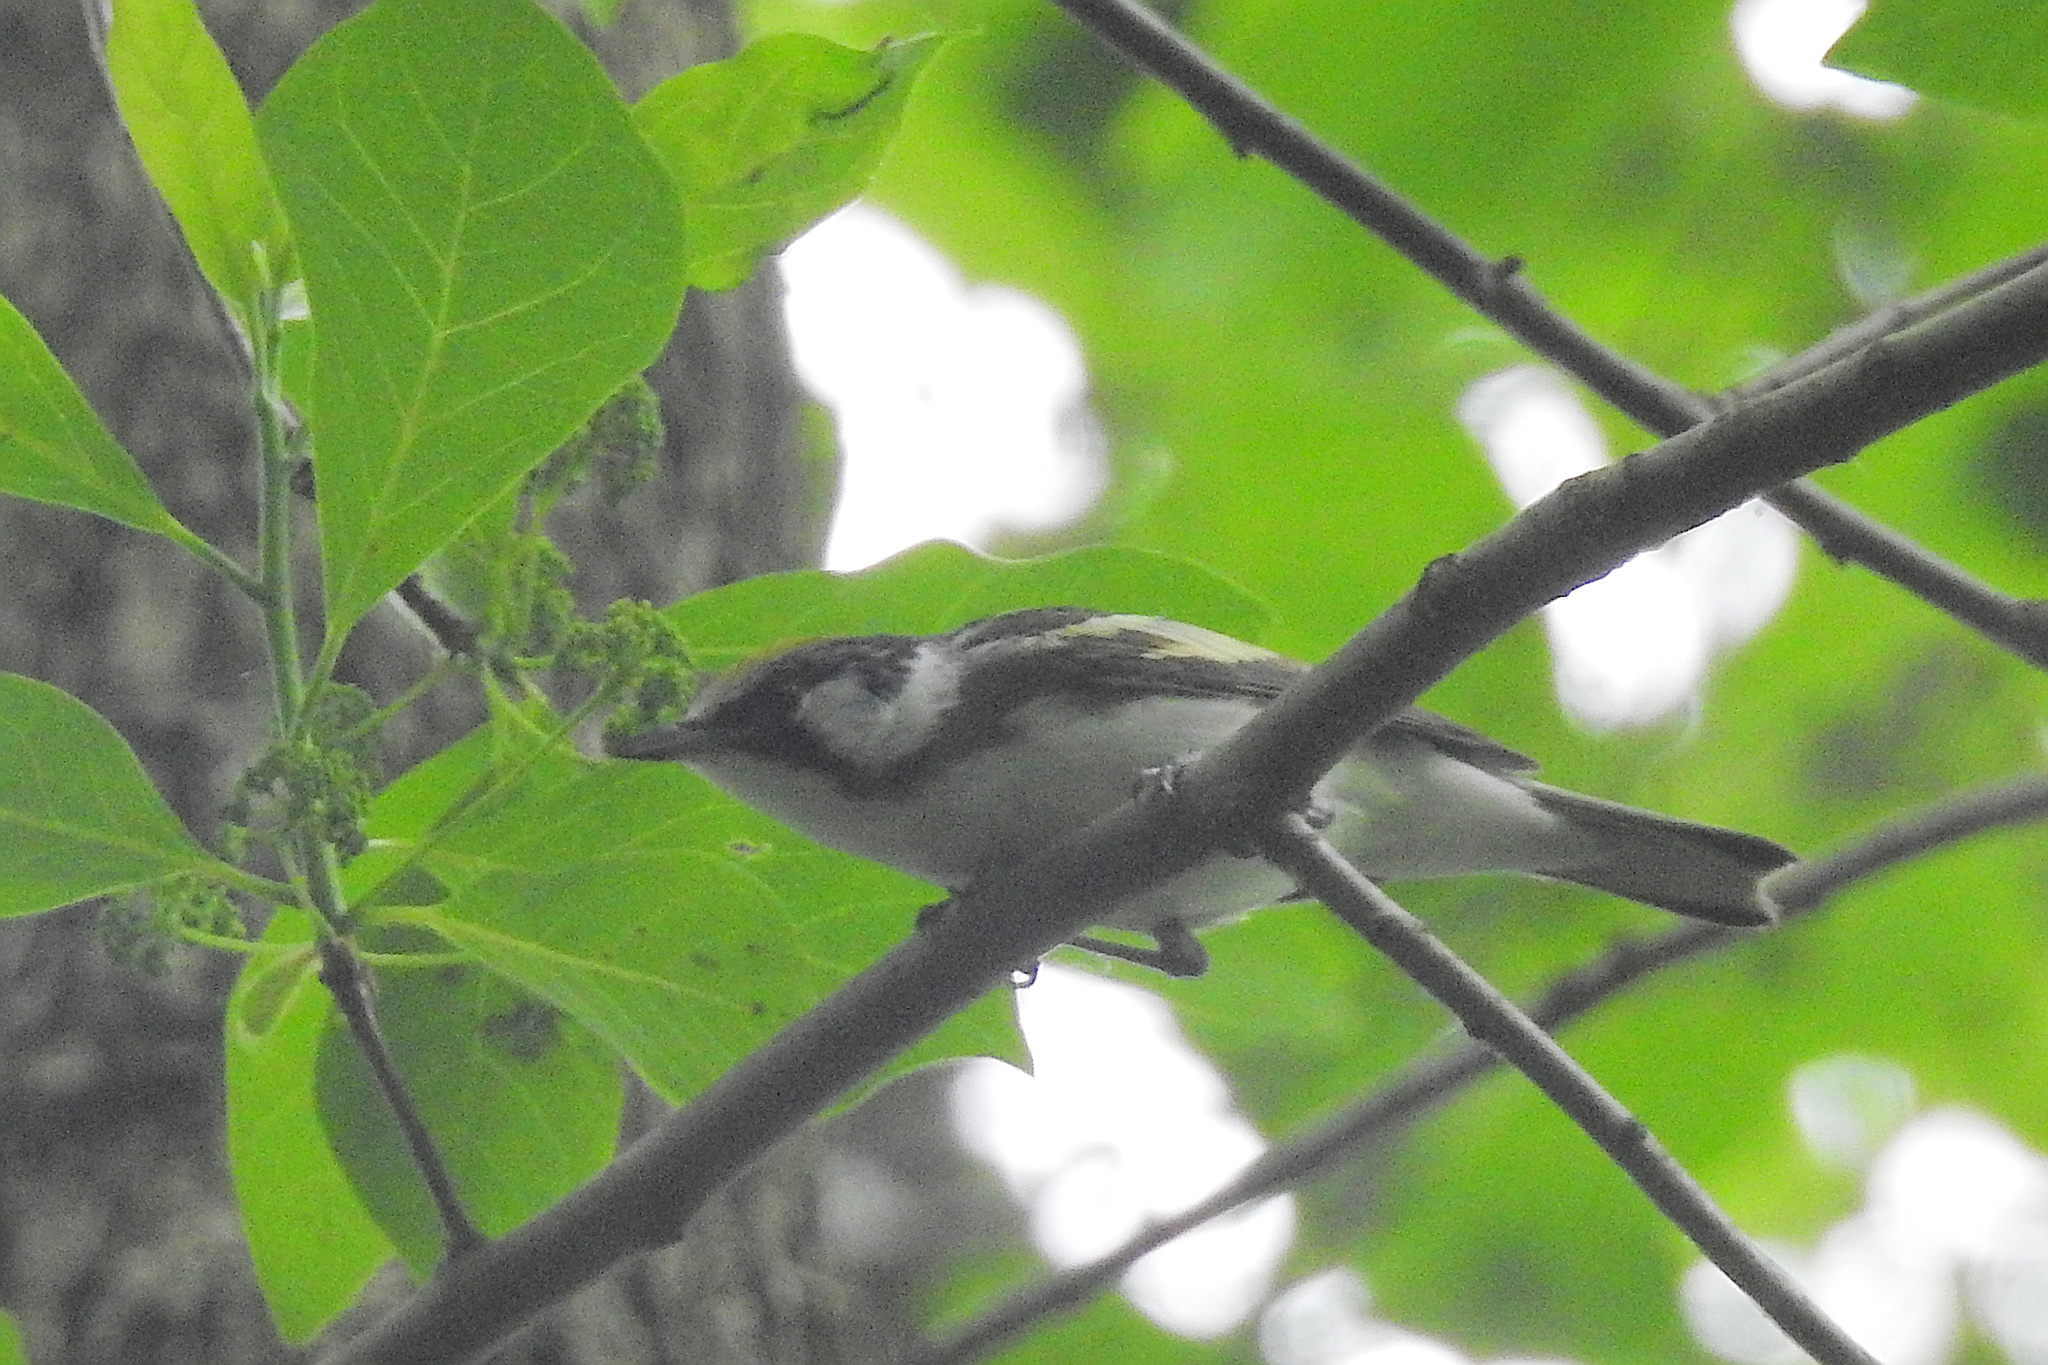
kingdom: Animalia
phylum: Chordata
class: Aves
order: Passeriformes
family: Parulidae
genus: Setophaga
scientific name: Setophaga pensylvanica
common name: Chestnut-sided warbler
